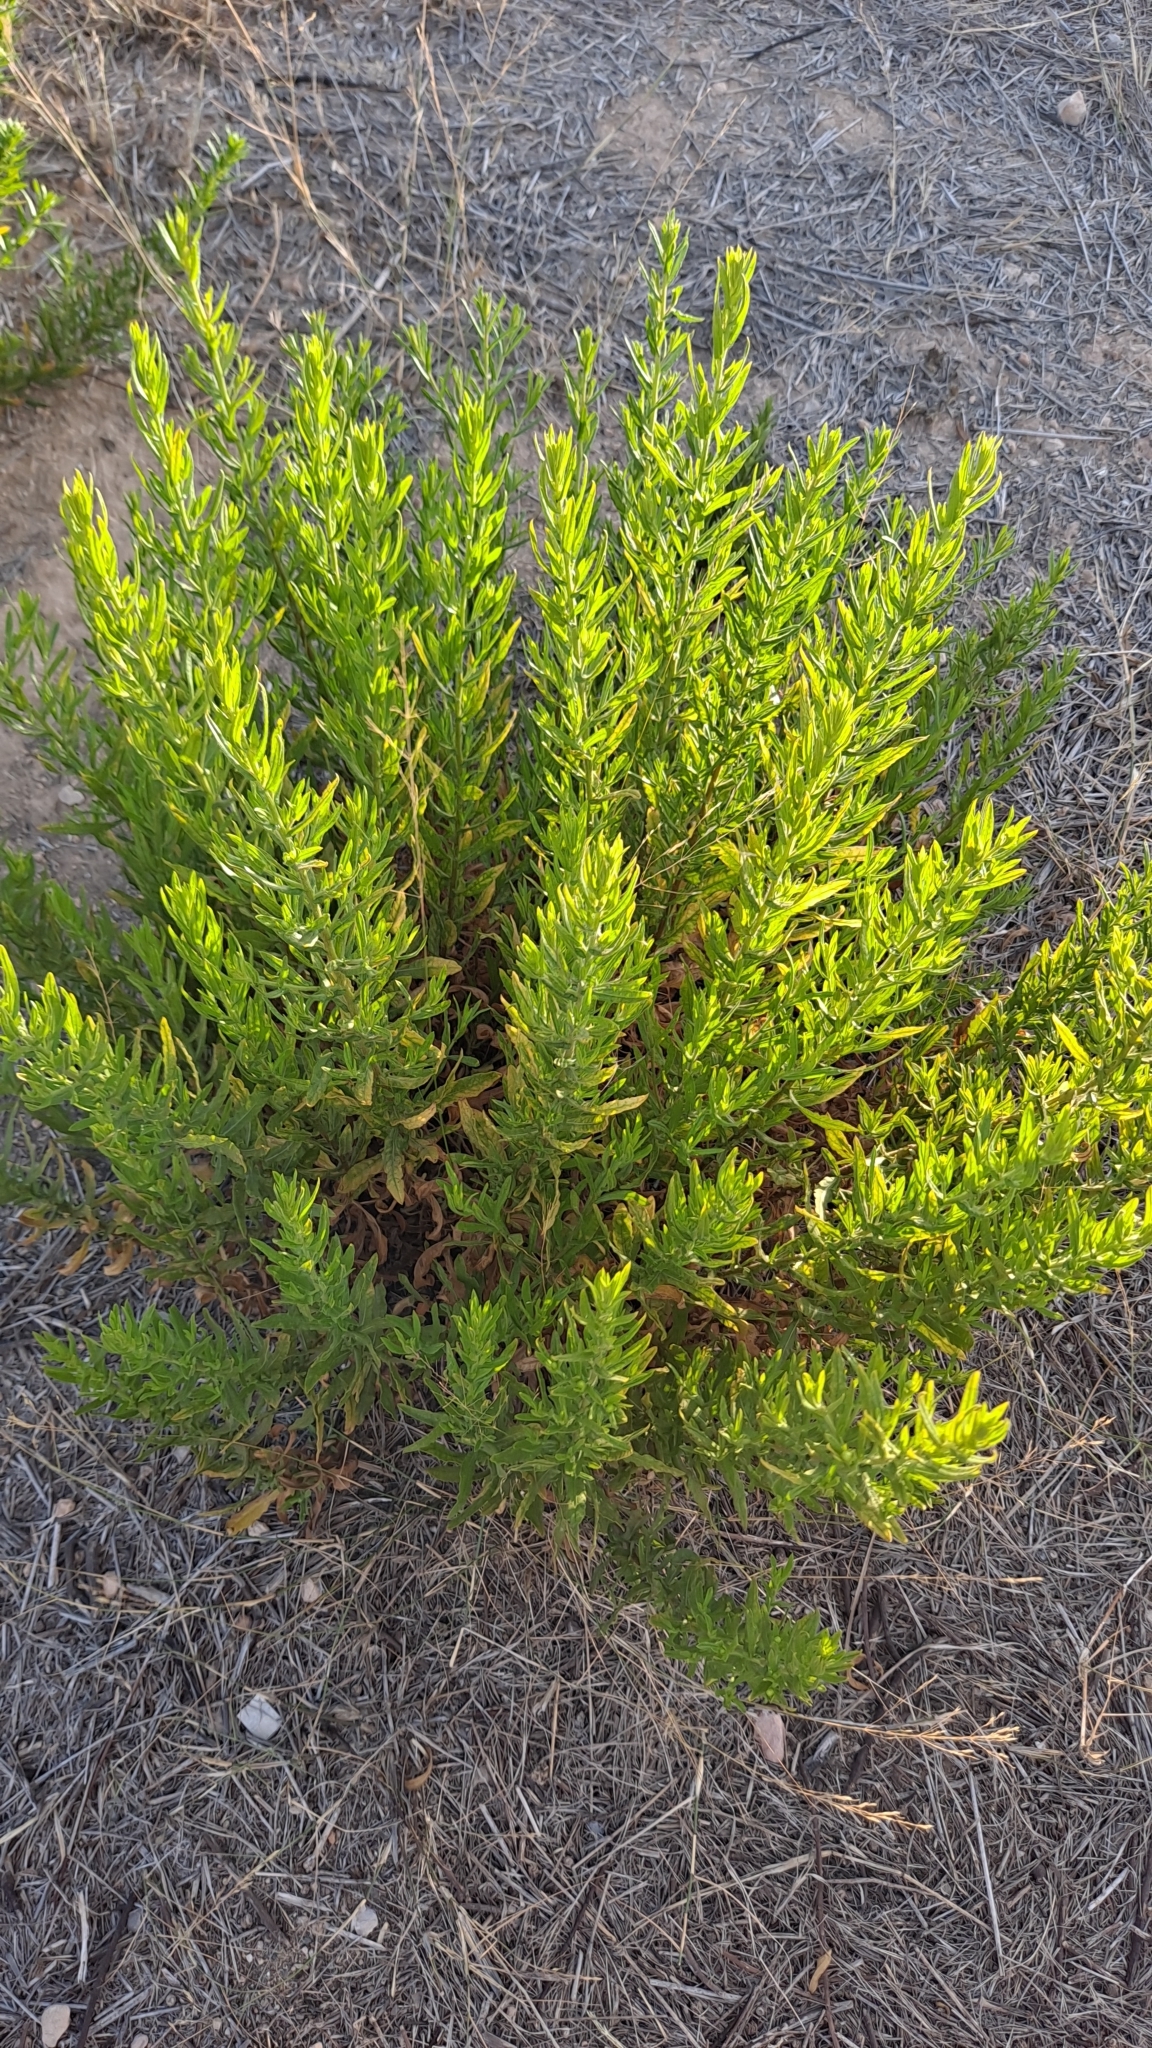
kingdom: Plantae
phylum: Tracheophyta
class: Magnoliopsida
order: Asterales
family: Asteraceae
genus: Dittrichia
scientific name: Dittrichia viscosa
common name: Woody fleabane
